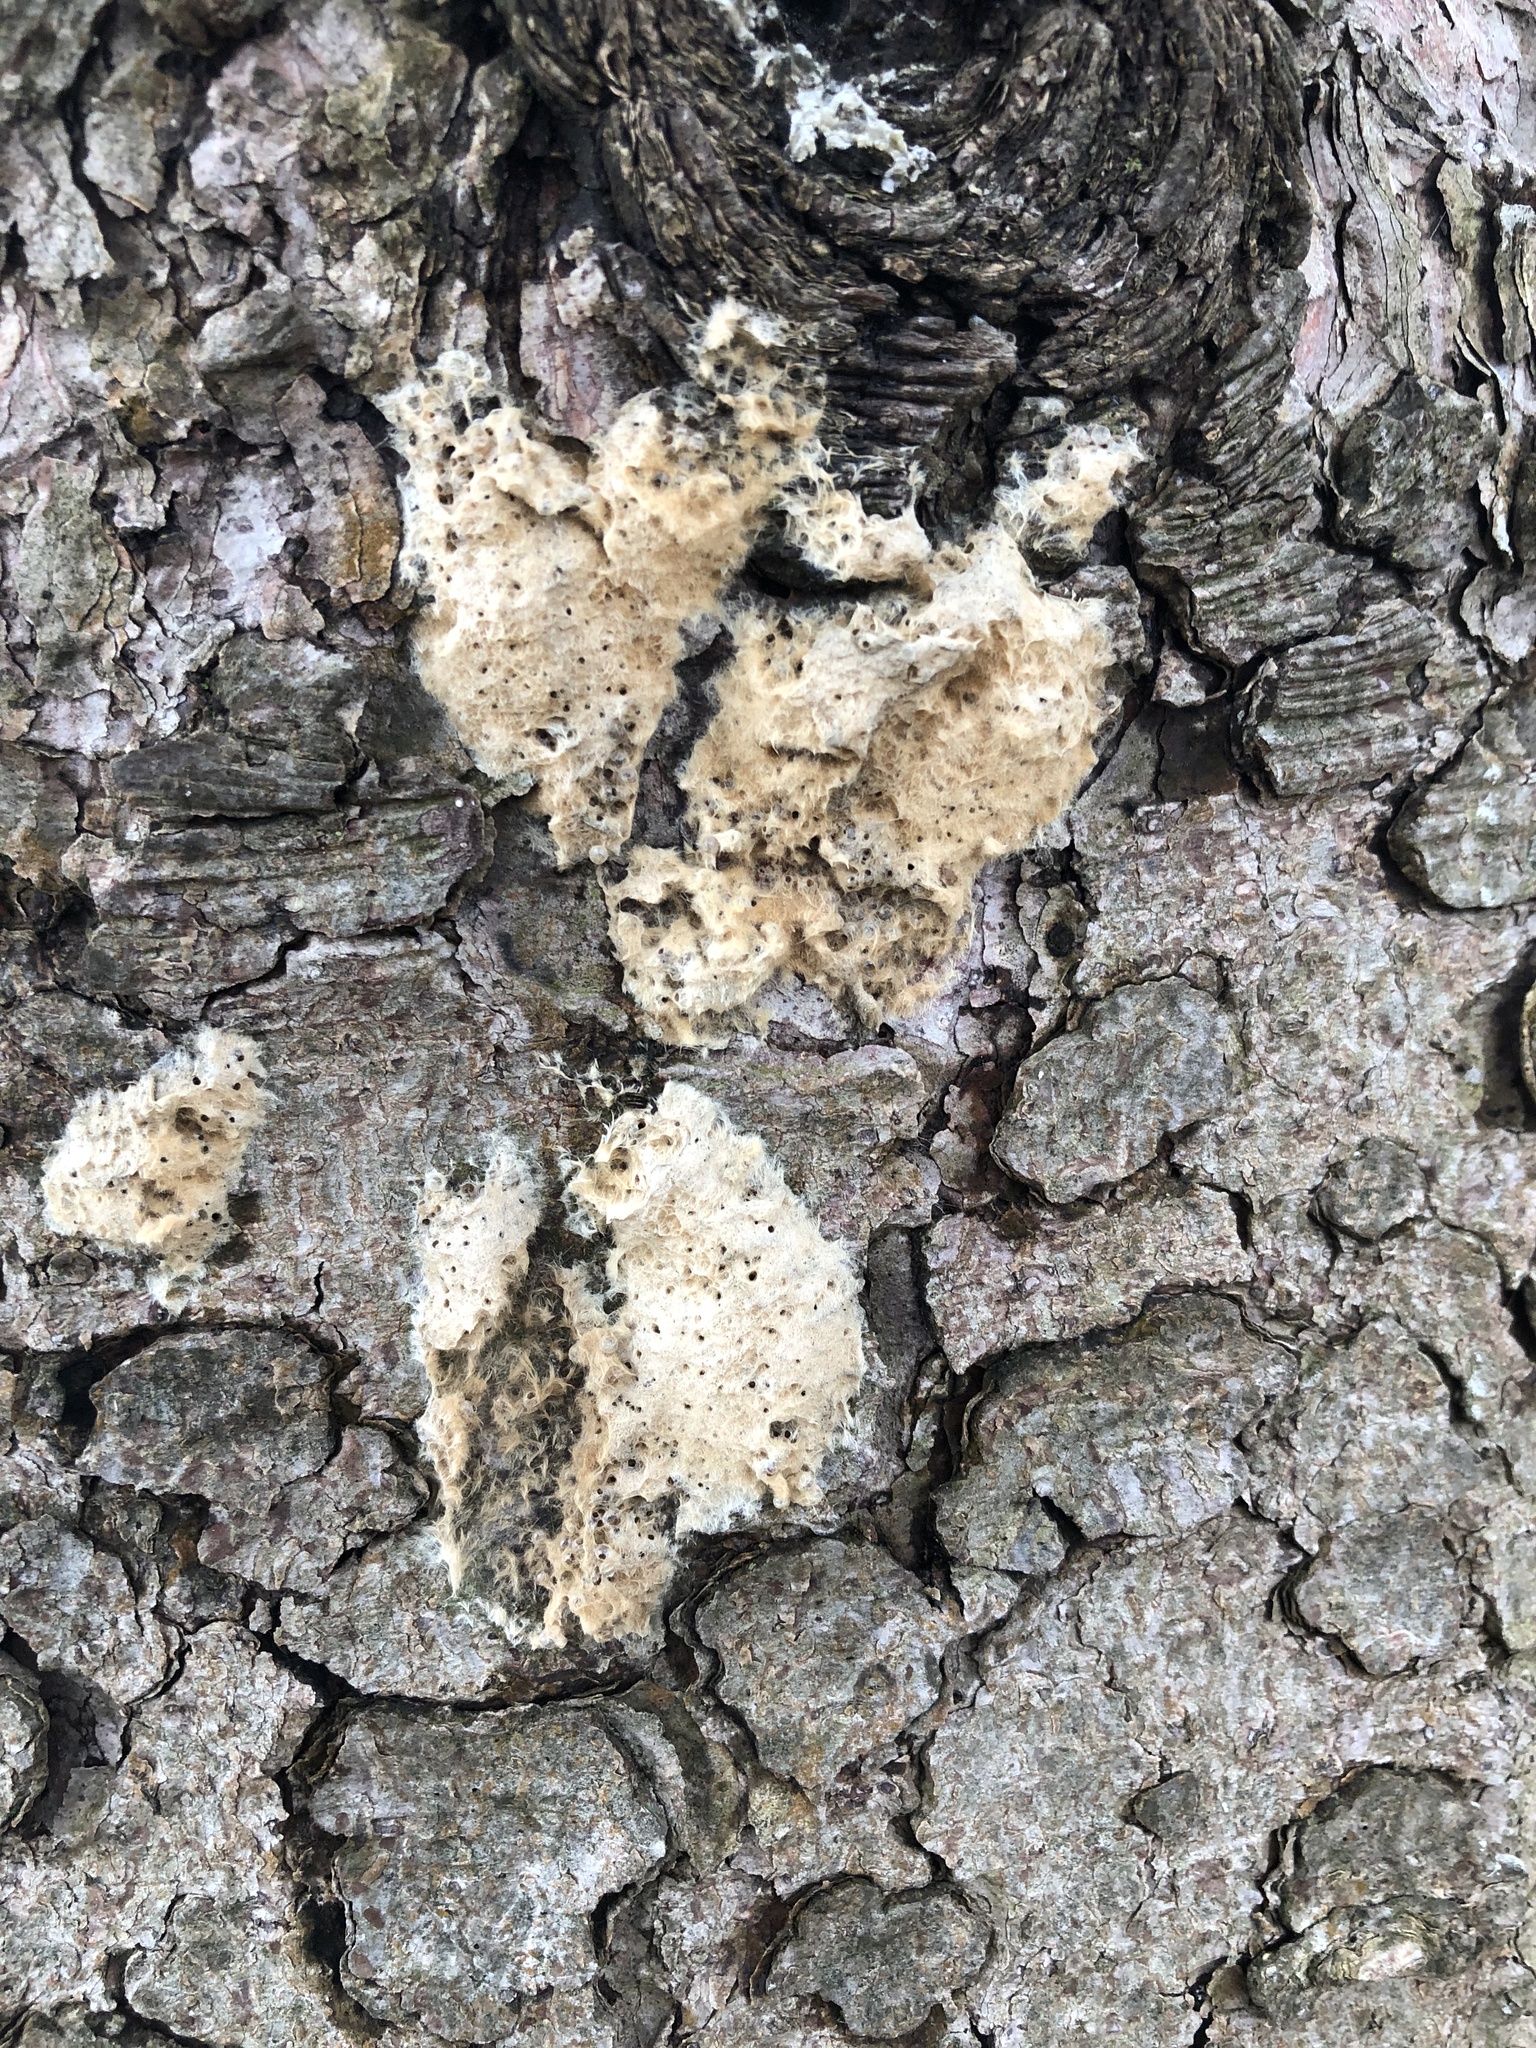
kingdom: Animalia
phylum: Arthropoda
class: Insecta
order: Lepidoptera
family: Erebidae
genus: Lymantria
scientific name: Lymantria dispar
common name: Gypsy moth
